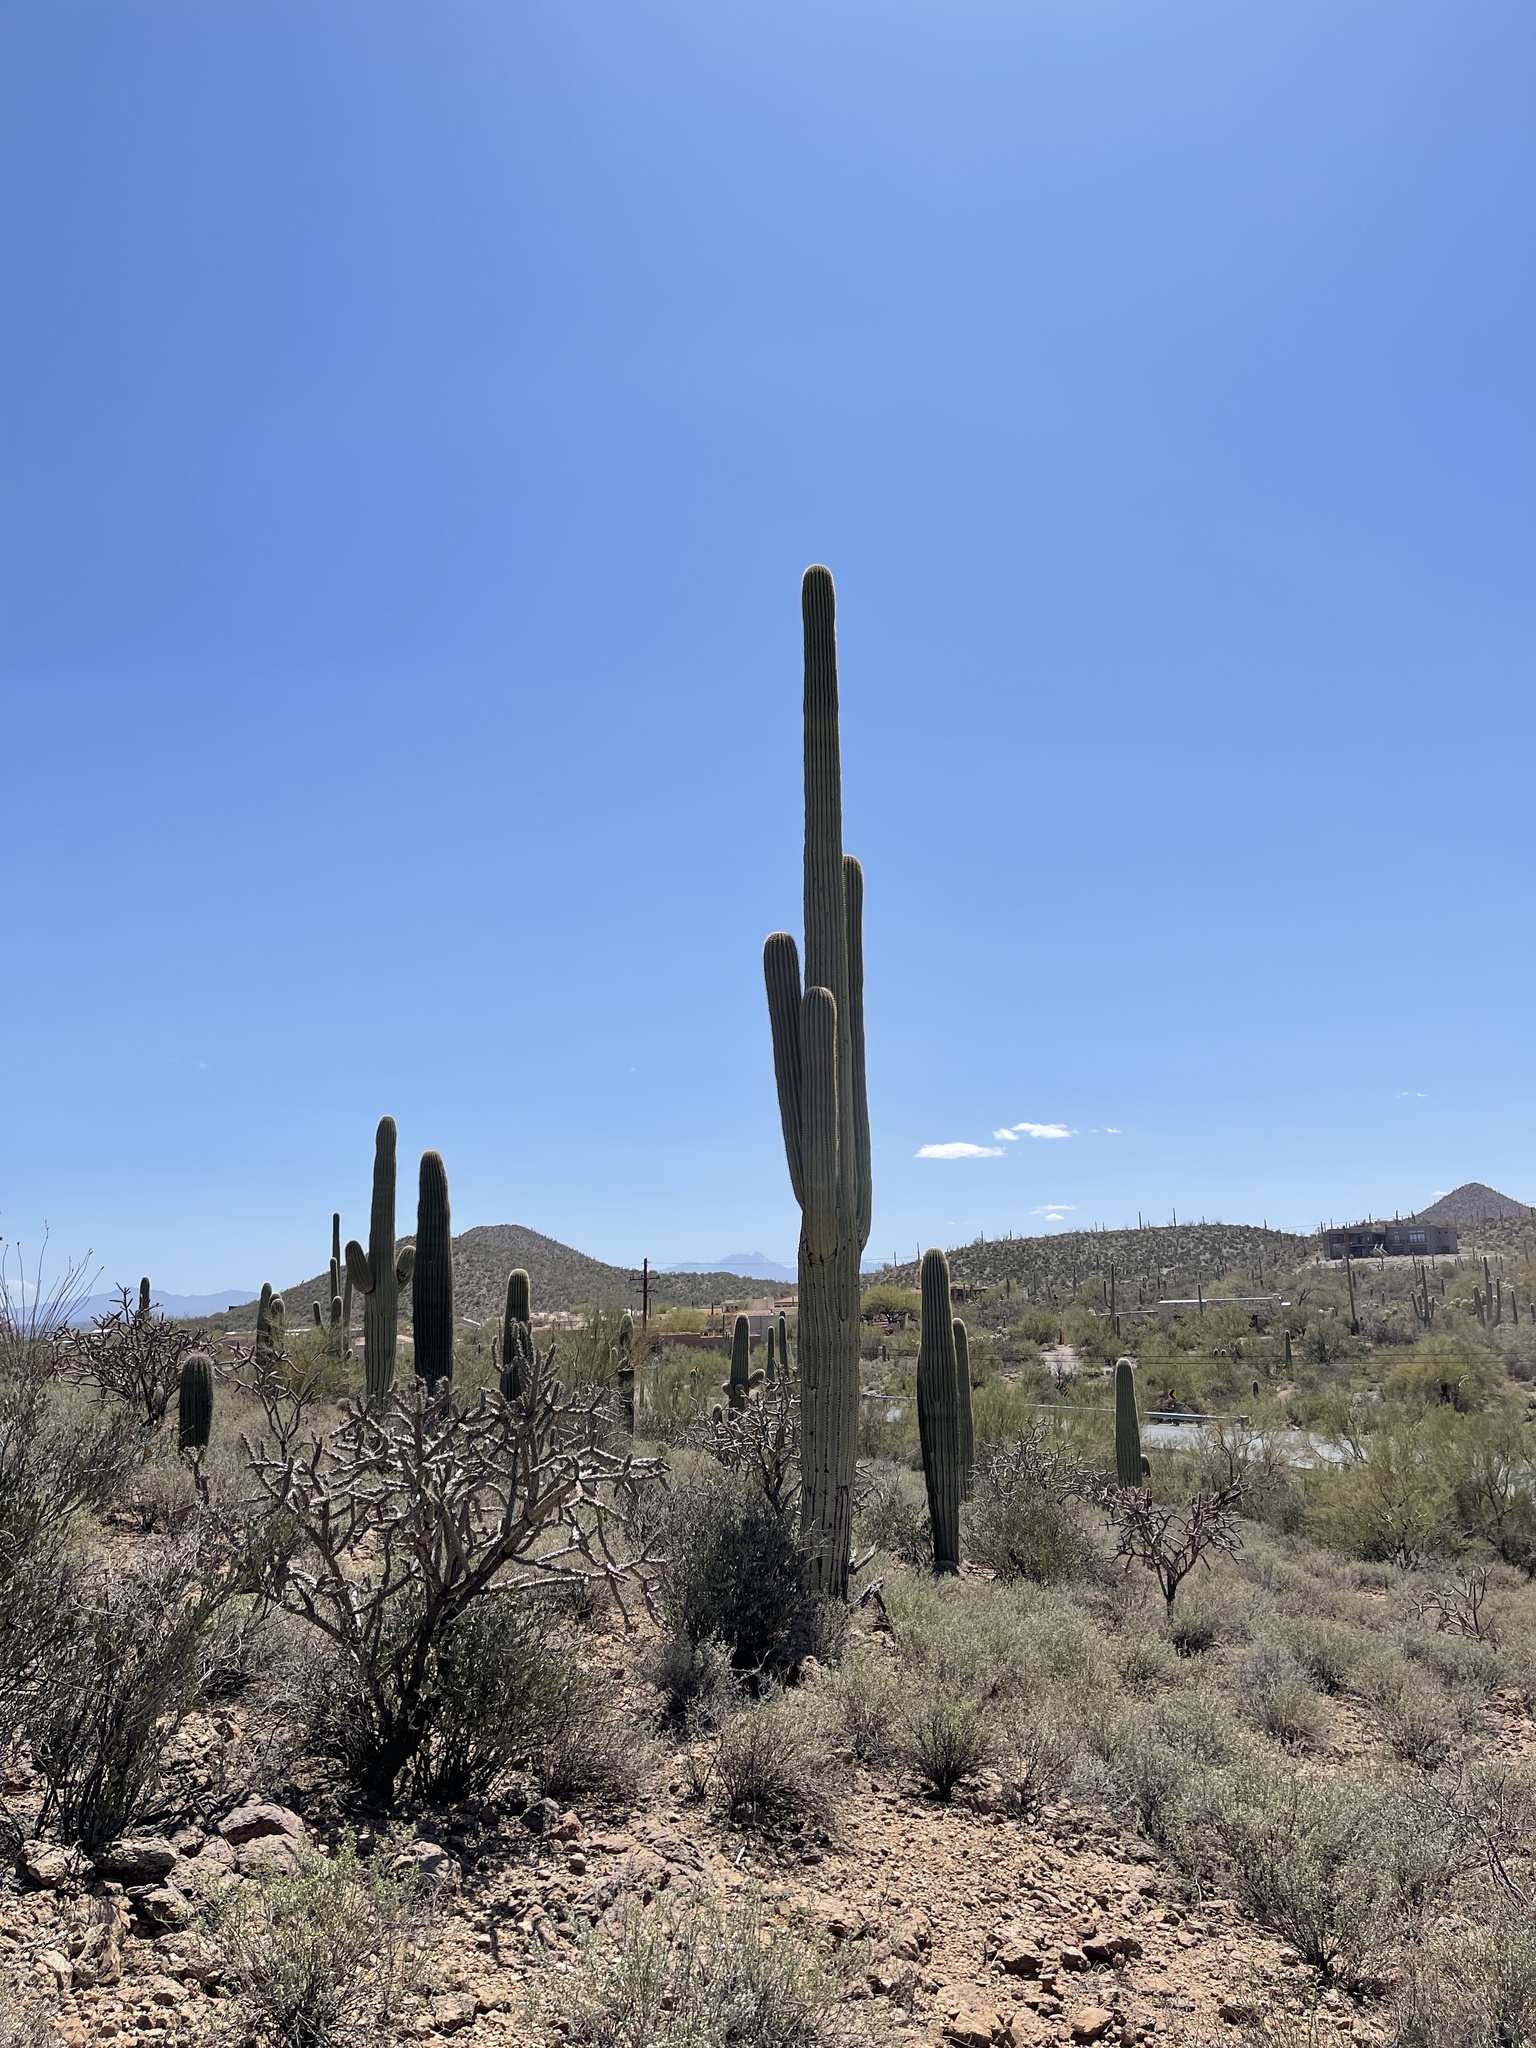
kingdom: Plantae
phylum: Tracheophyta
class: Magnoliopsida
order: Caryophyllales
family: Cactaceae
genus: Carnegiea
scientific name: Carnegiea gigantea
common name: Saguaro
